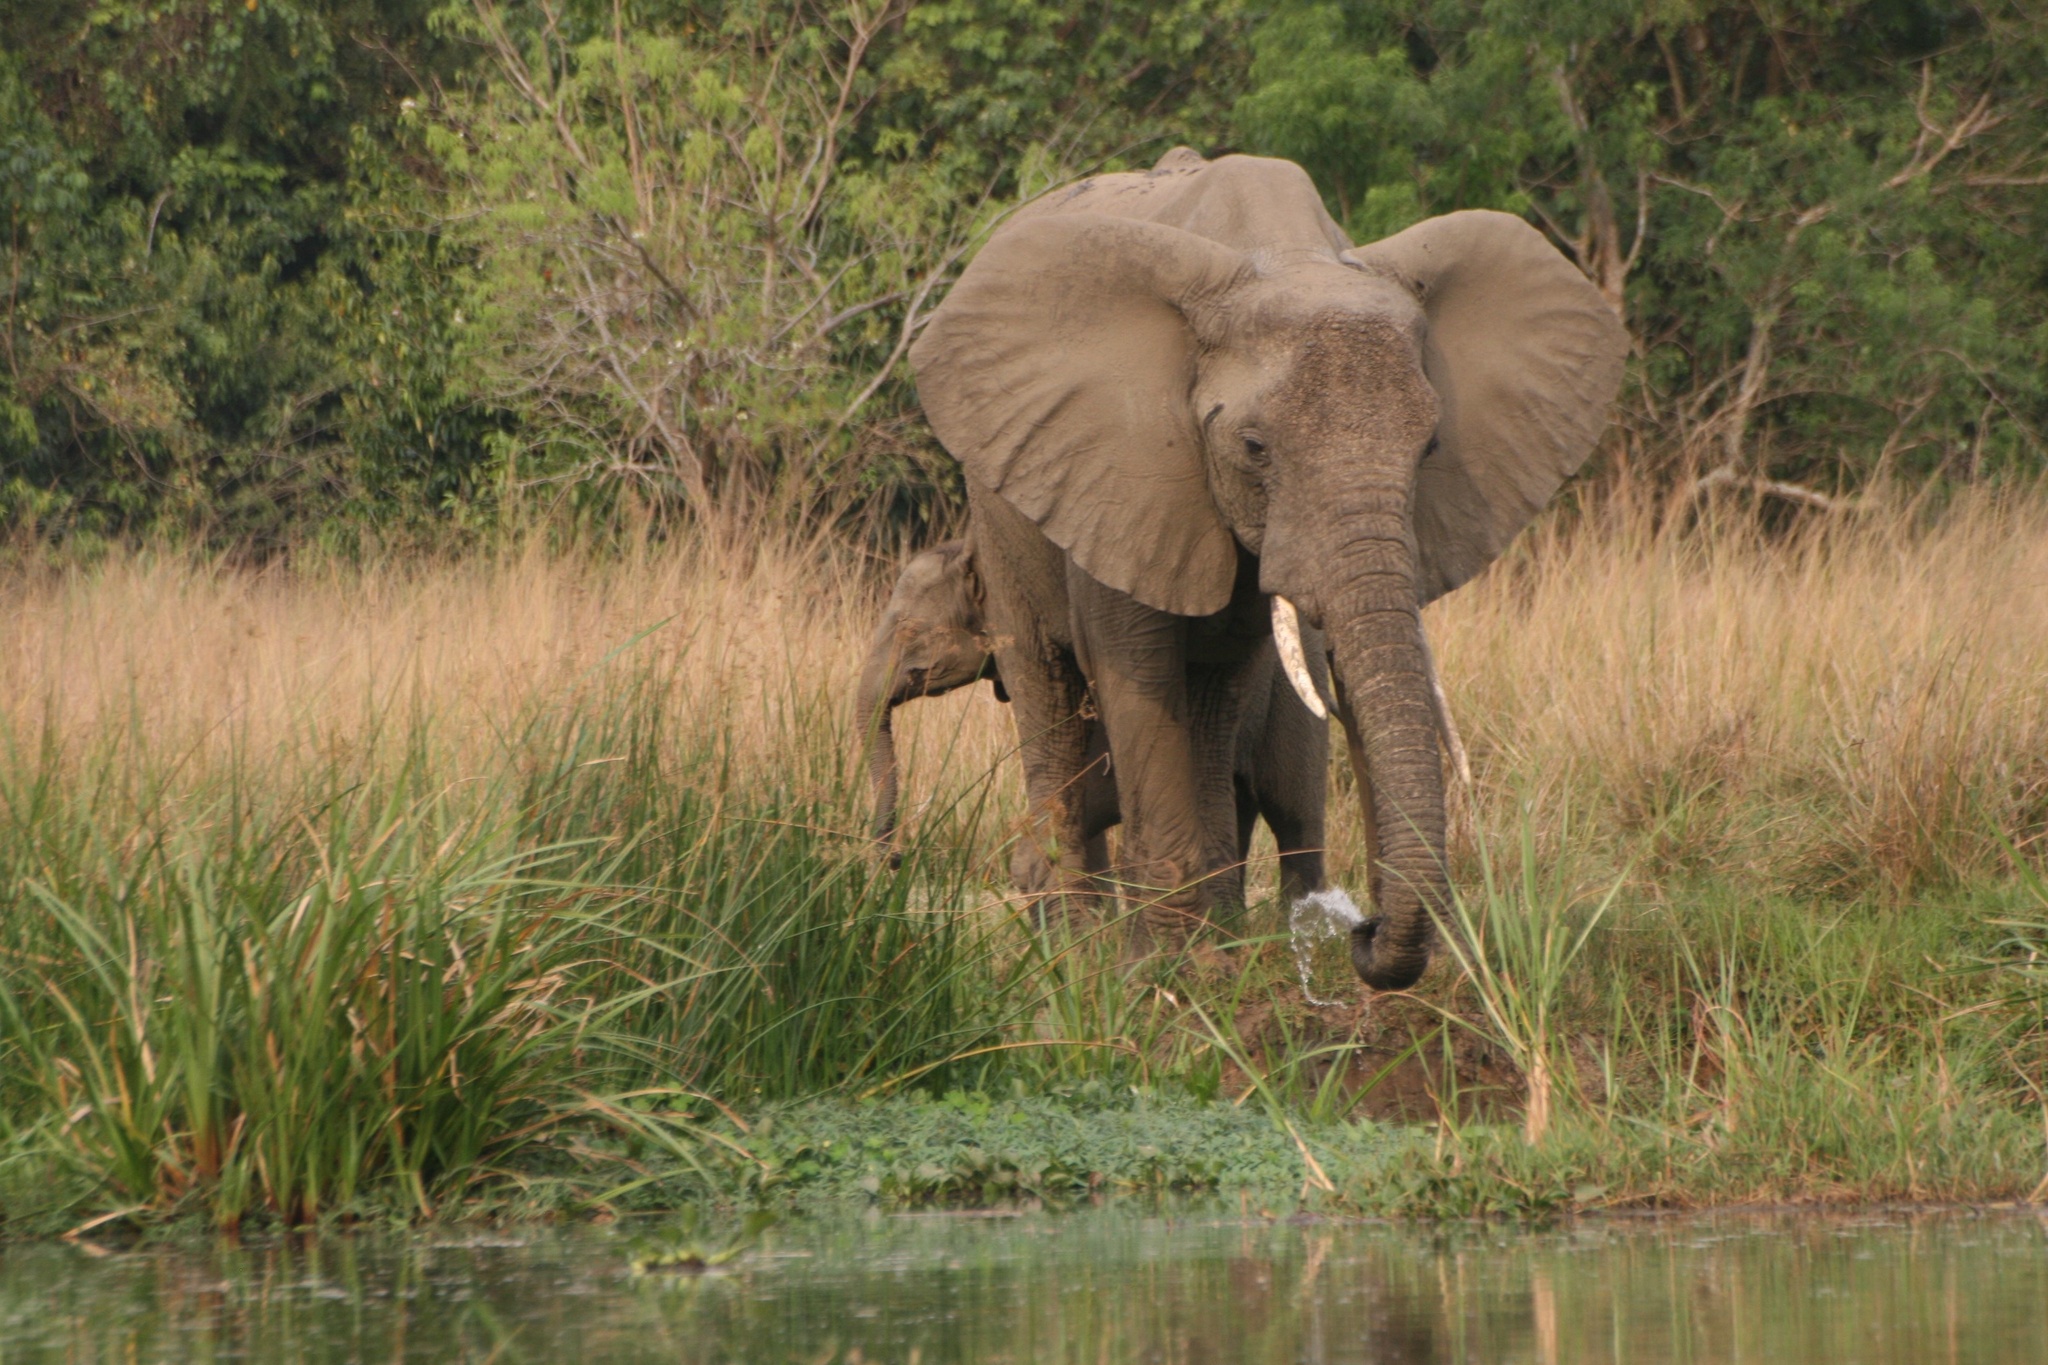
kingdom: Animalia
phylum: Chordata
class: Mammalia
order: Proboscidea
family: Elephantidae
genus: Loxodonta
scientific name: Loxodonta africana
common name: African elephant
